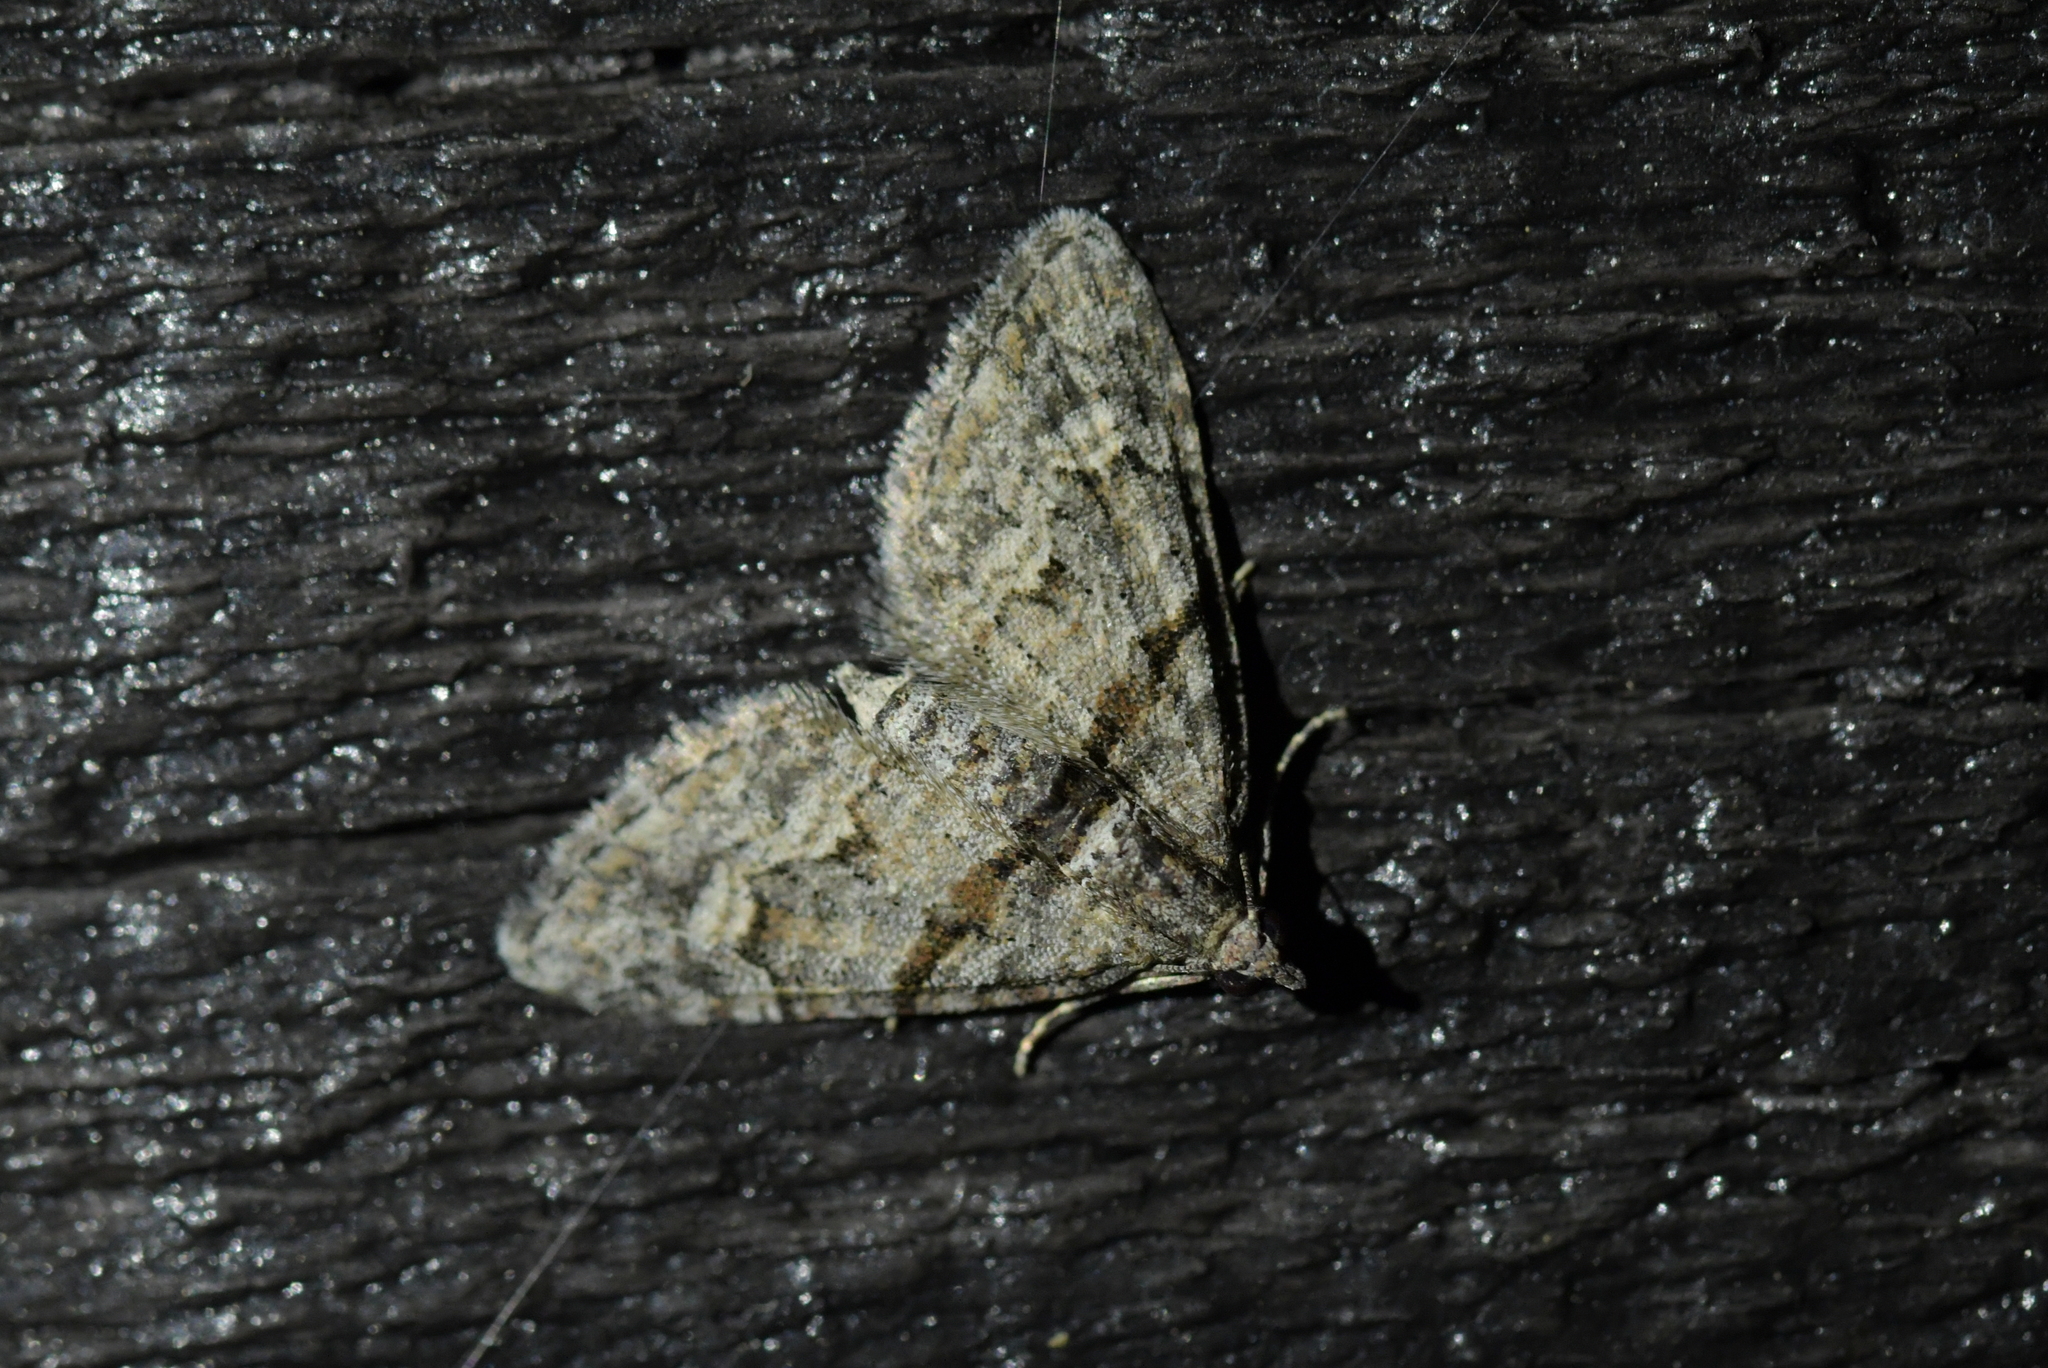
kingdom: Animalia
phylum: Arthropoda
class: Insecta
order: Lepidoptera
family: Geometridae
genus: Phrissogonus
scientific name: Phrissogonus laticostata
